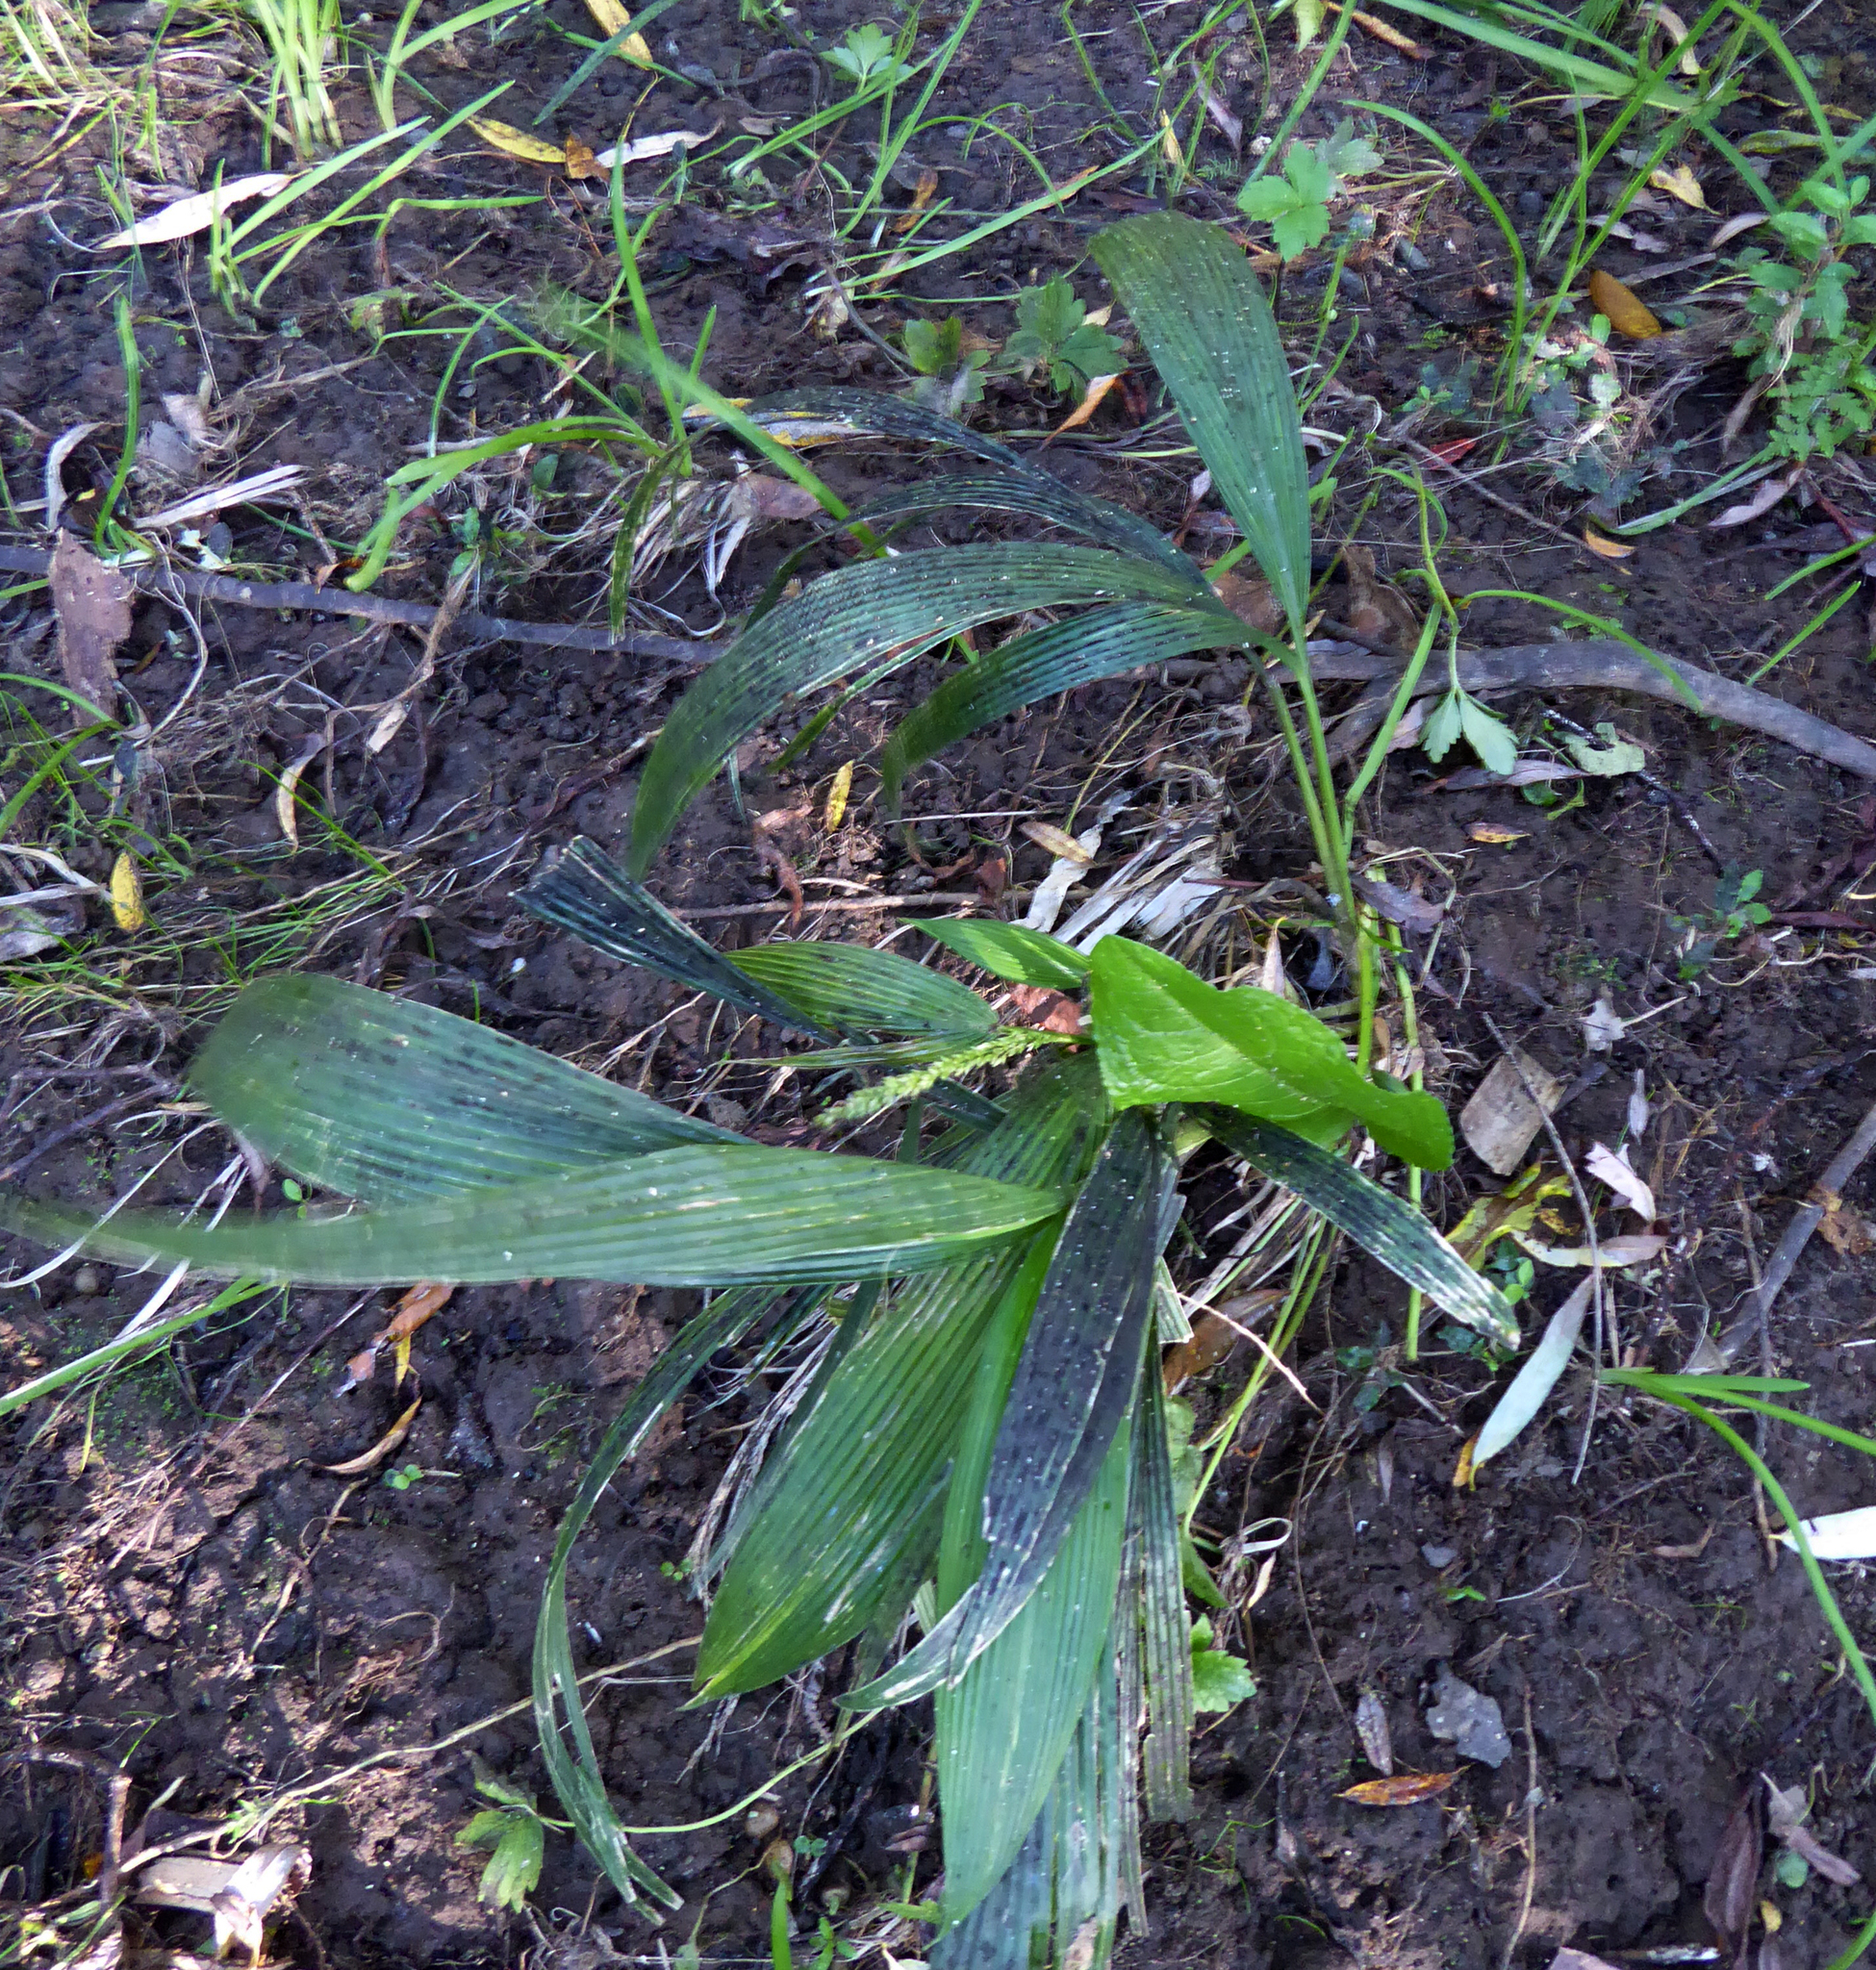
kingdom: Plantae
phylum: Tracheophyta
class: Liliopsida
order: Poales
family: Poaceae
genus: Setaria
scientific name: Setaria palmifolia
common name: Broadleaved bristlegrass
